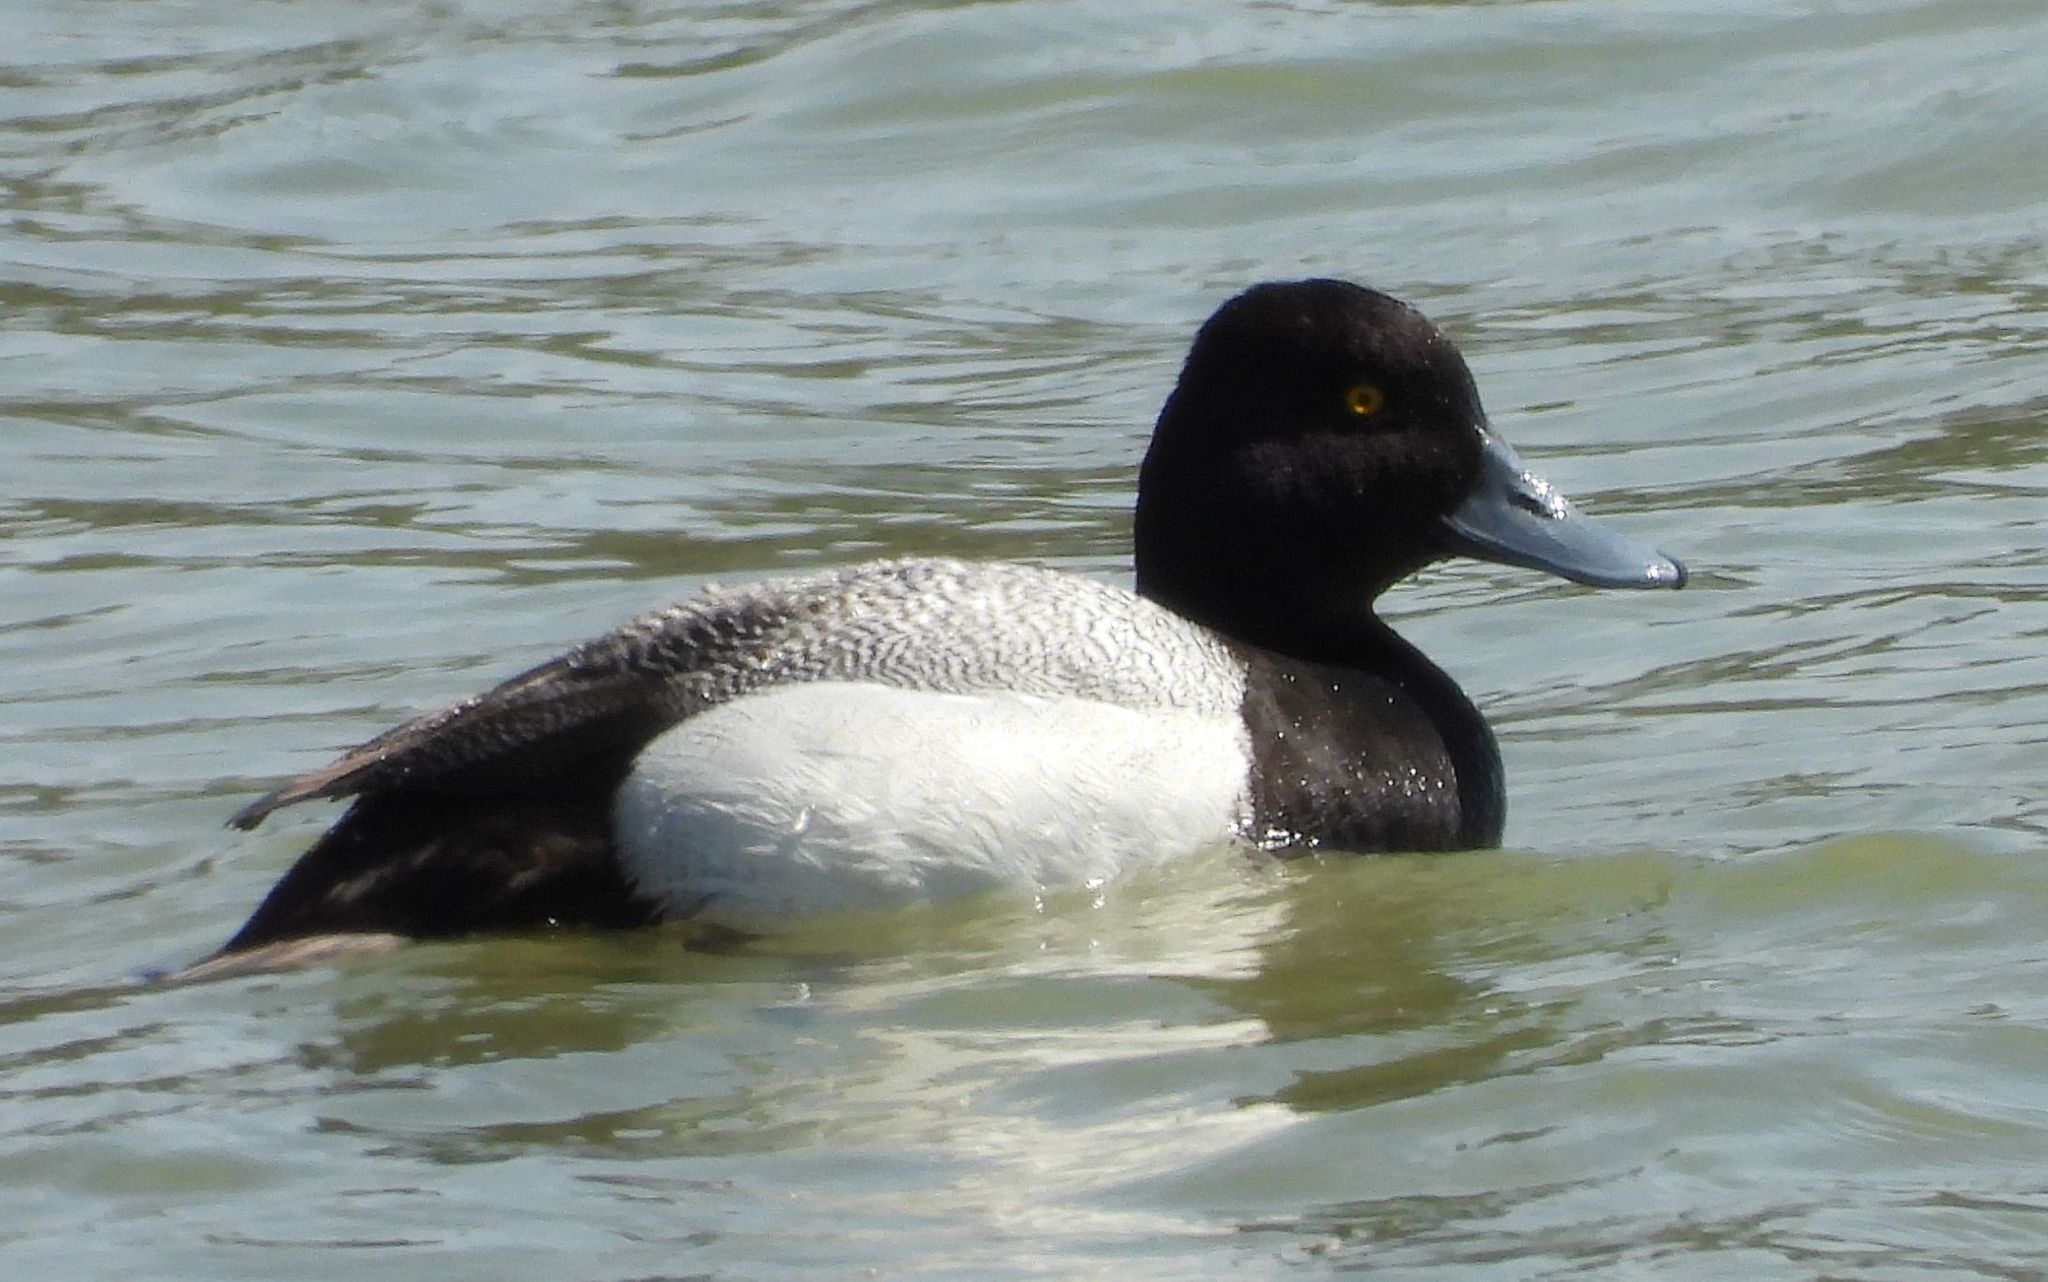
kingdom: Animalia
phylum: Chordata
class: Aves
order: Anseriformes
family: Anatidae
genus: Aythya
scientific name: Aythya marila
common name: Greater scaup
